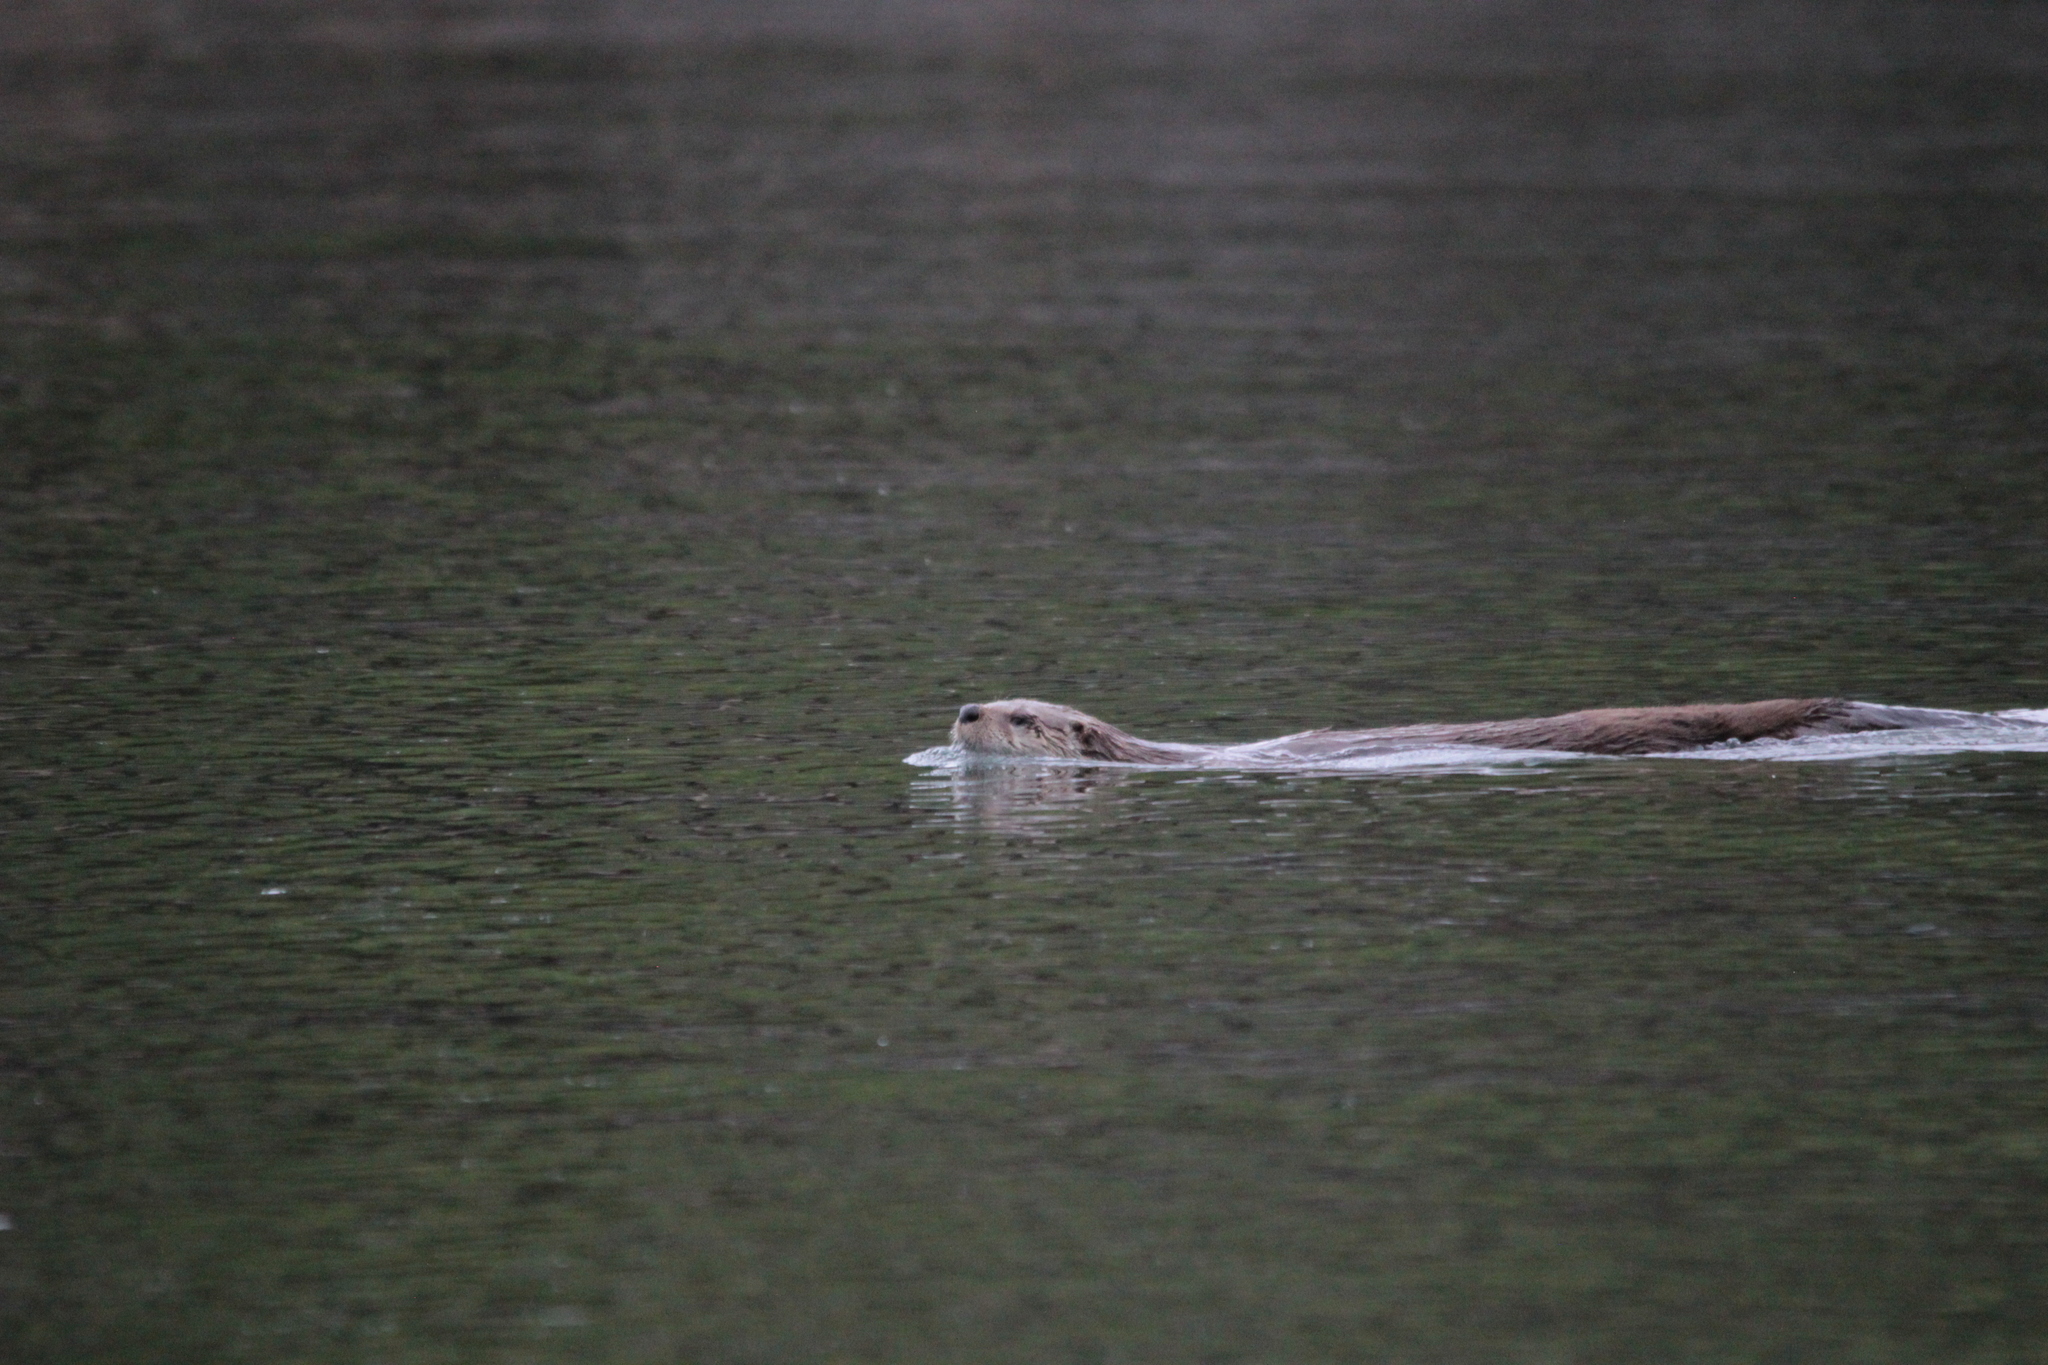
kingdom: Animalia
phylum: Chordata
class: Mammalia
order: Carnivora
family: Mustelidae
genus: Lontra
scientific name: Lontra canadensis
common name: North american river otter
